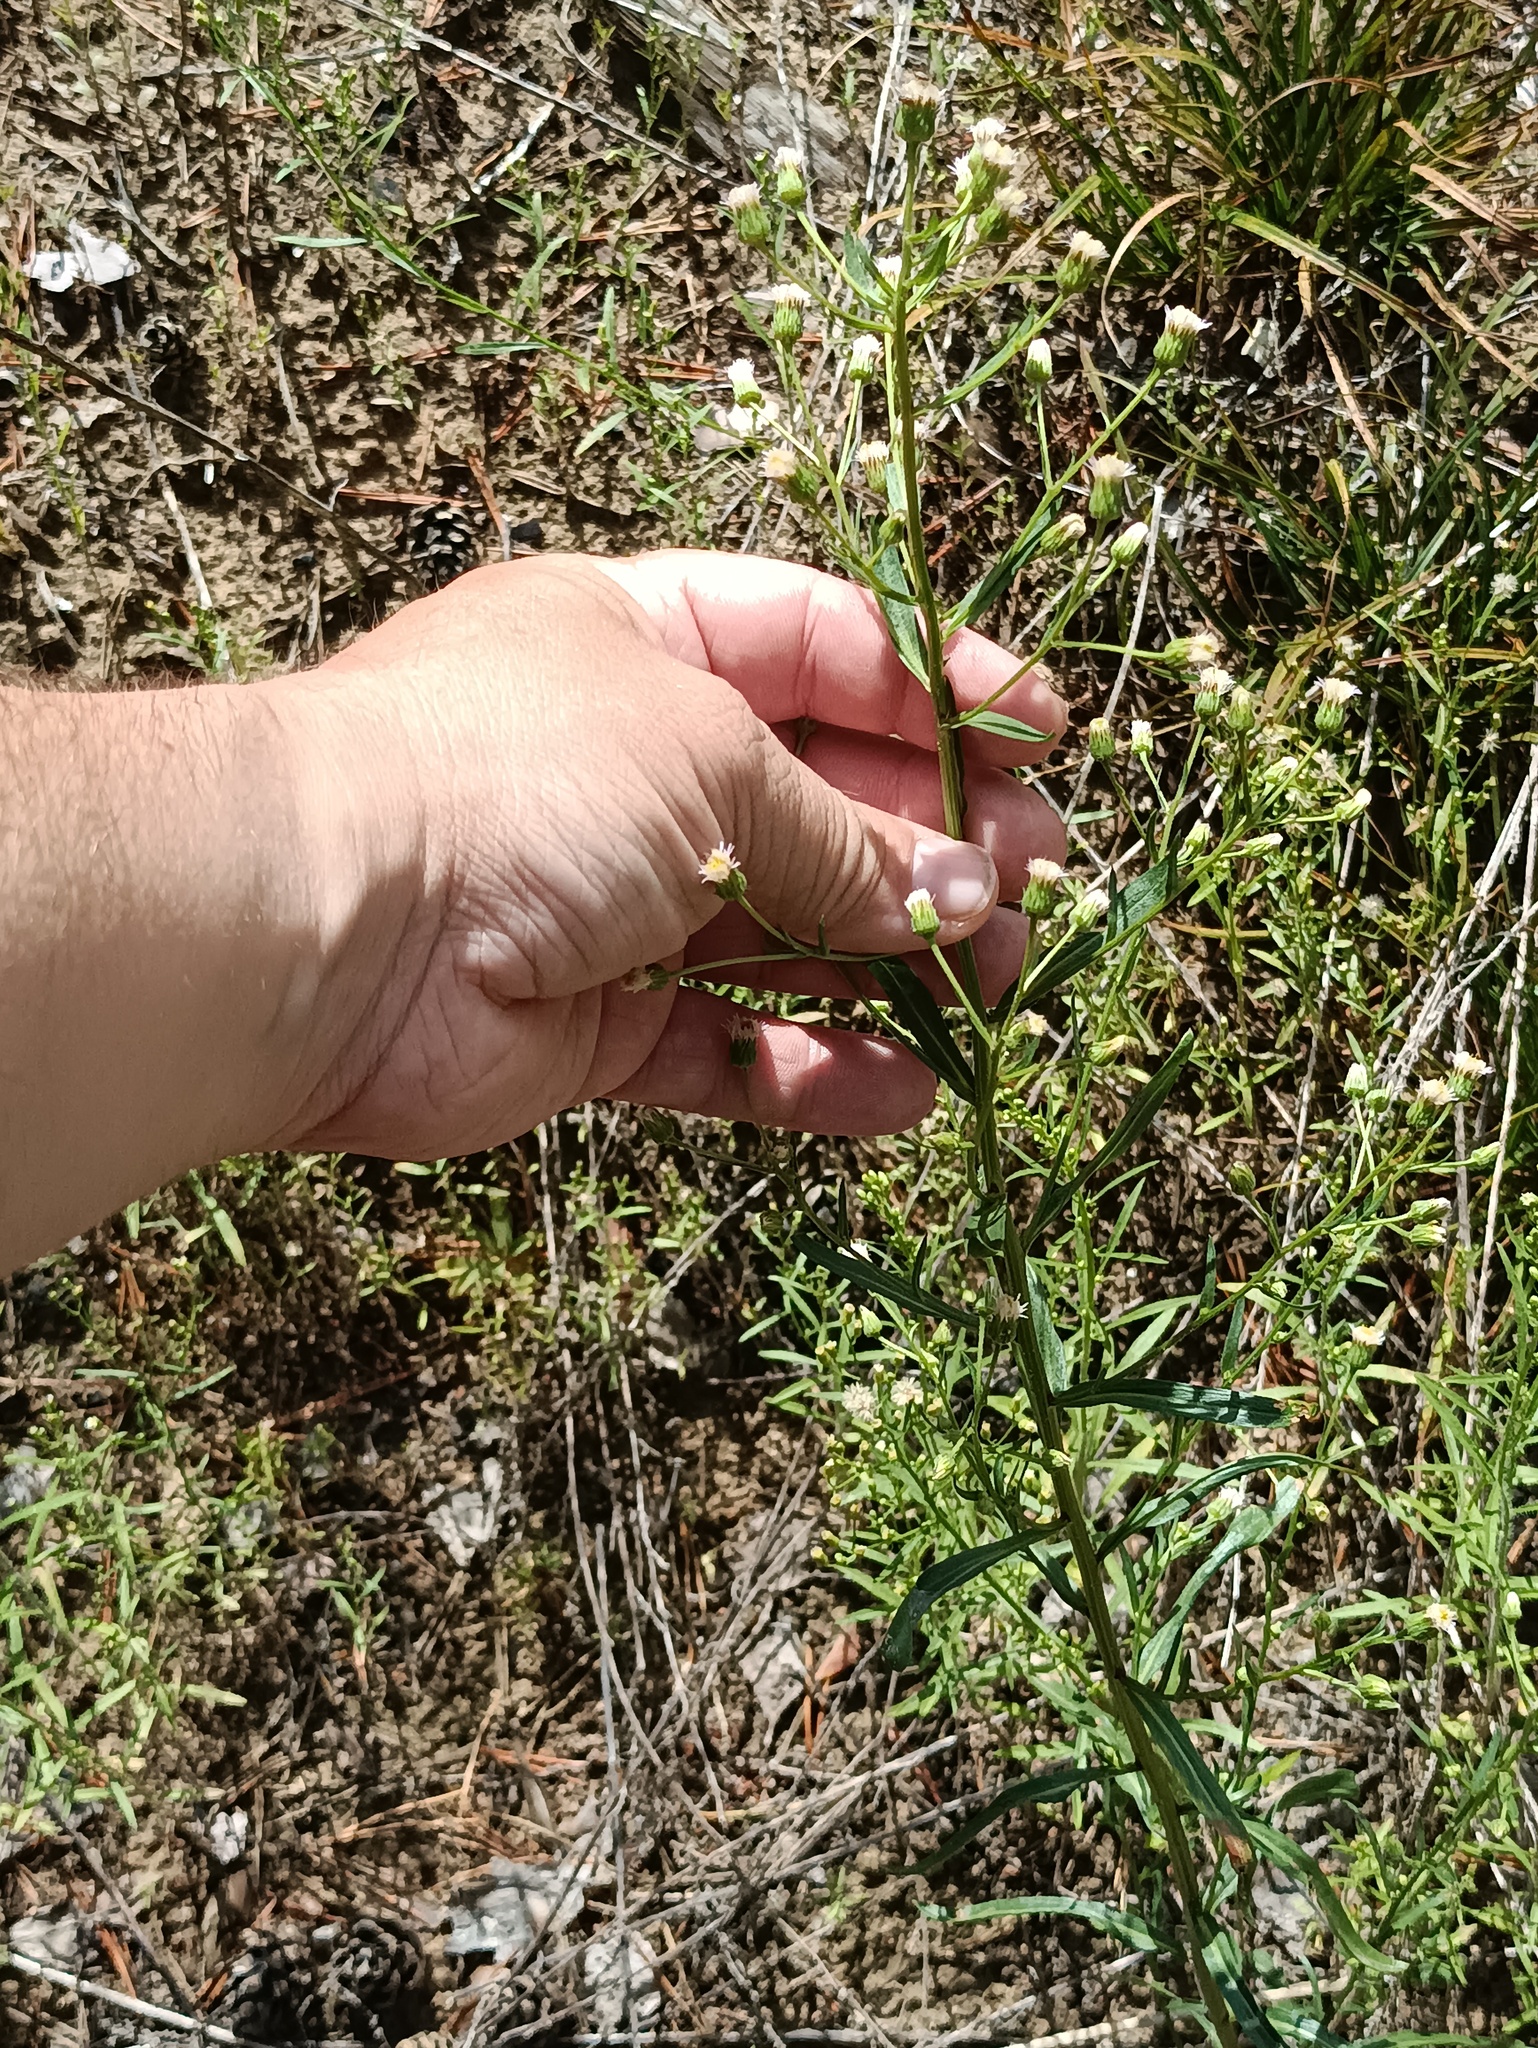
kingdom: Plantae
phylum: Tracheophyta
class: Magnoliopsida
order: Asterales
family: Asteraceae
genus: Erigeron
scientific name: Erigeron acris
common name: Blue fleabane
